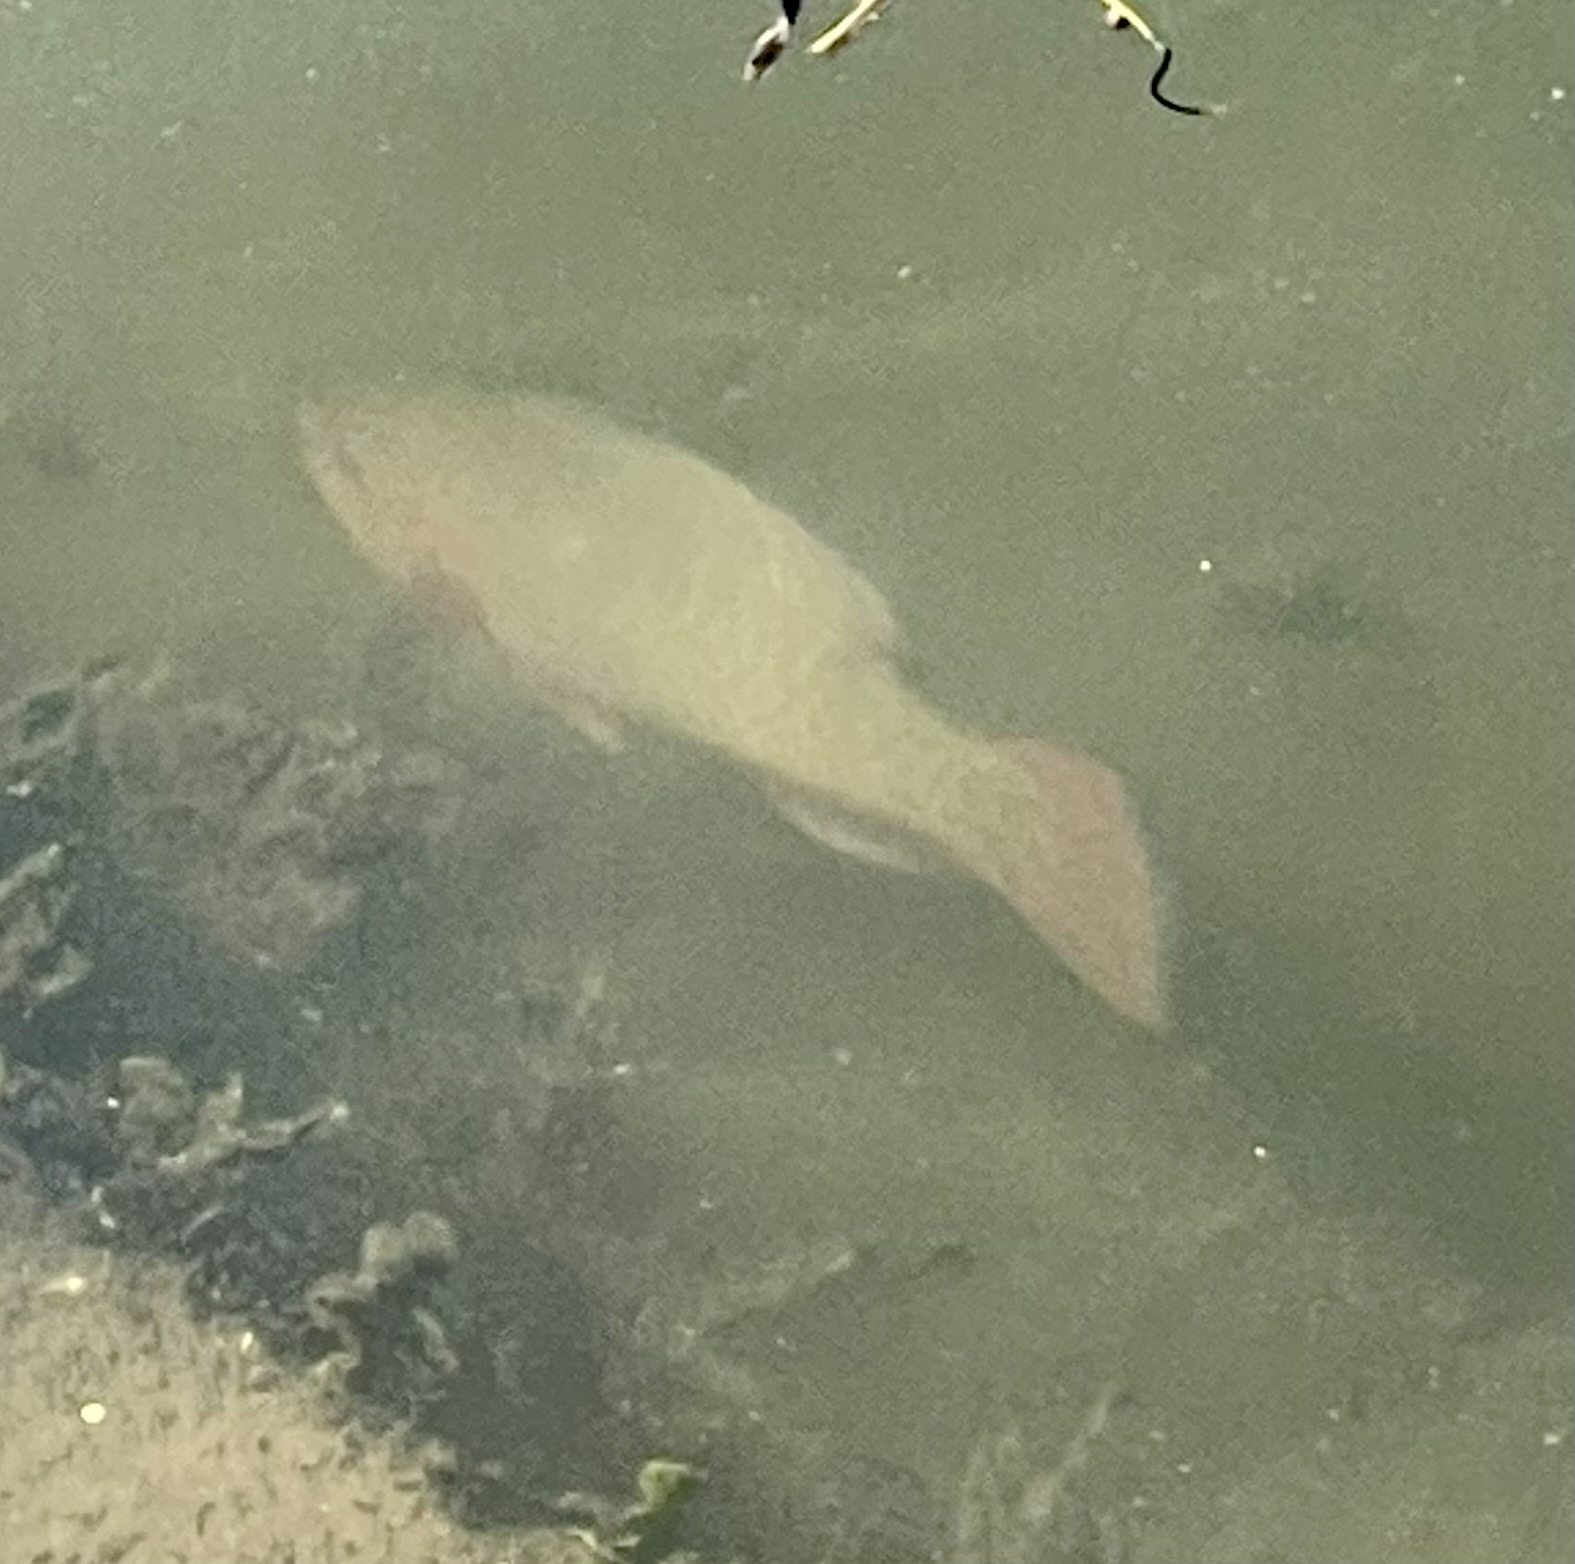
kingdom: Animalia
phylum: Chordata
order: Perciformes
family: Scaridae
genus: Scarus
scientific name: Scarus guacamaia
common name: Rainbow parrotfish
